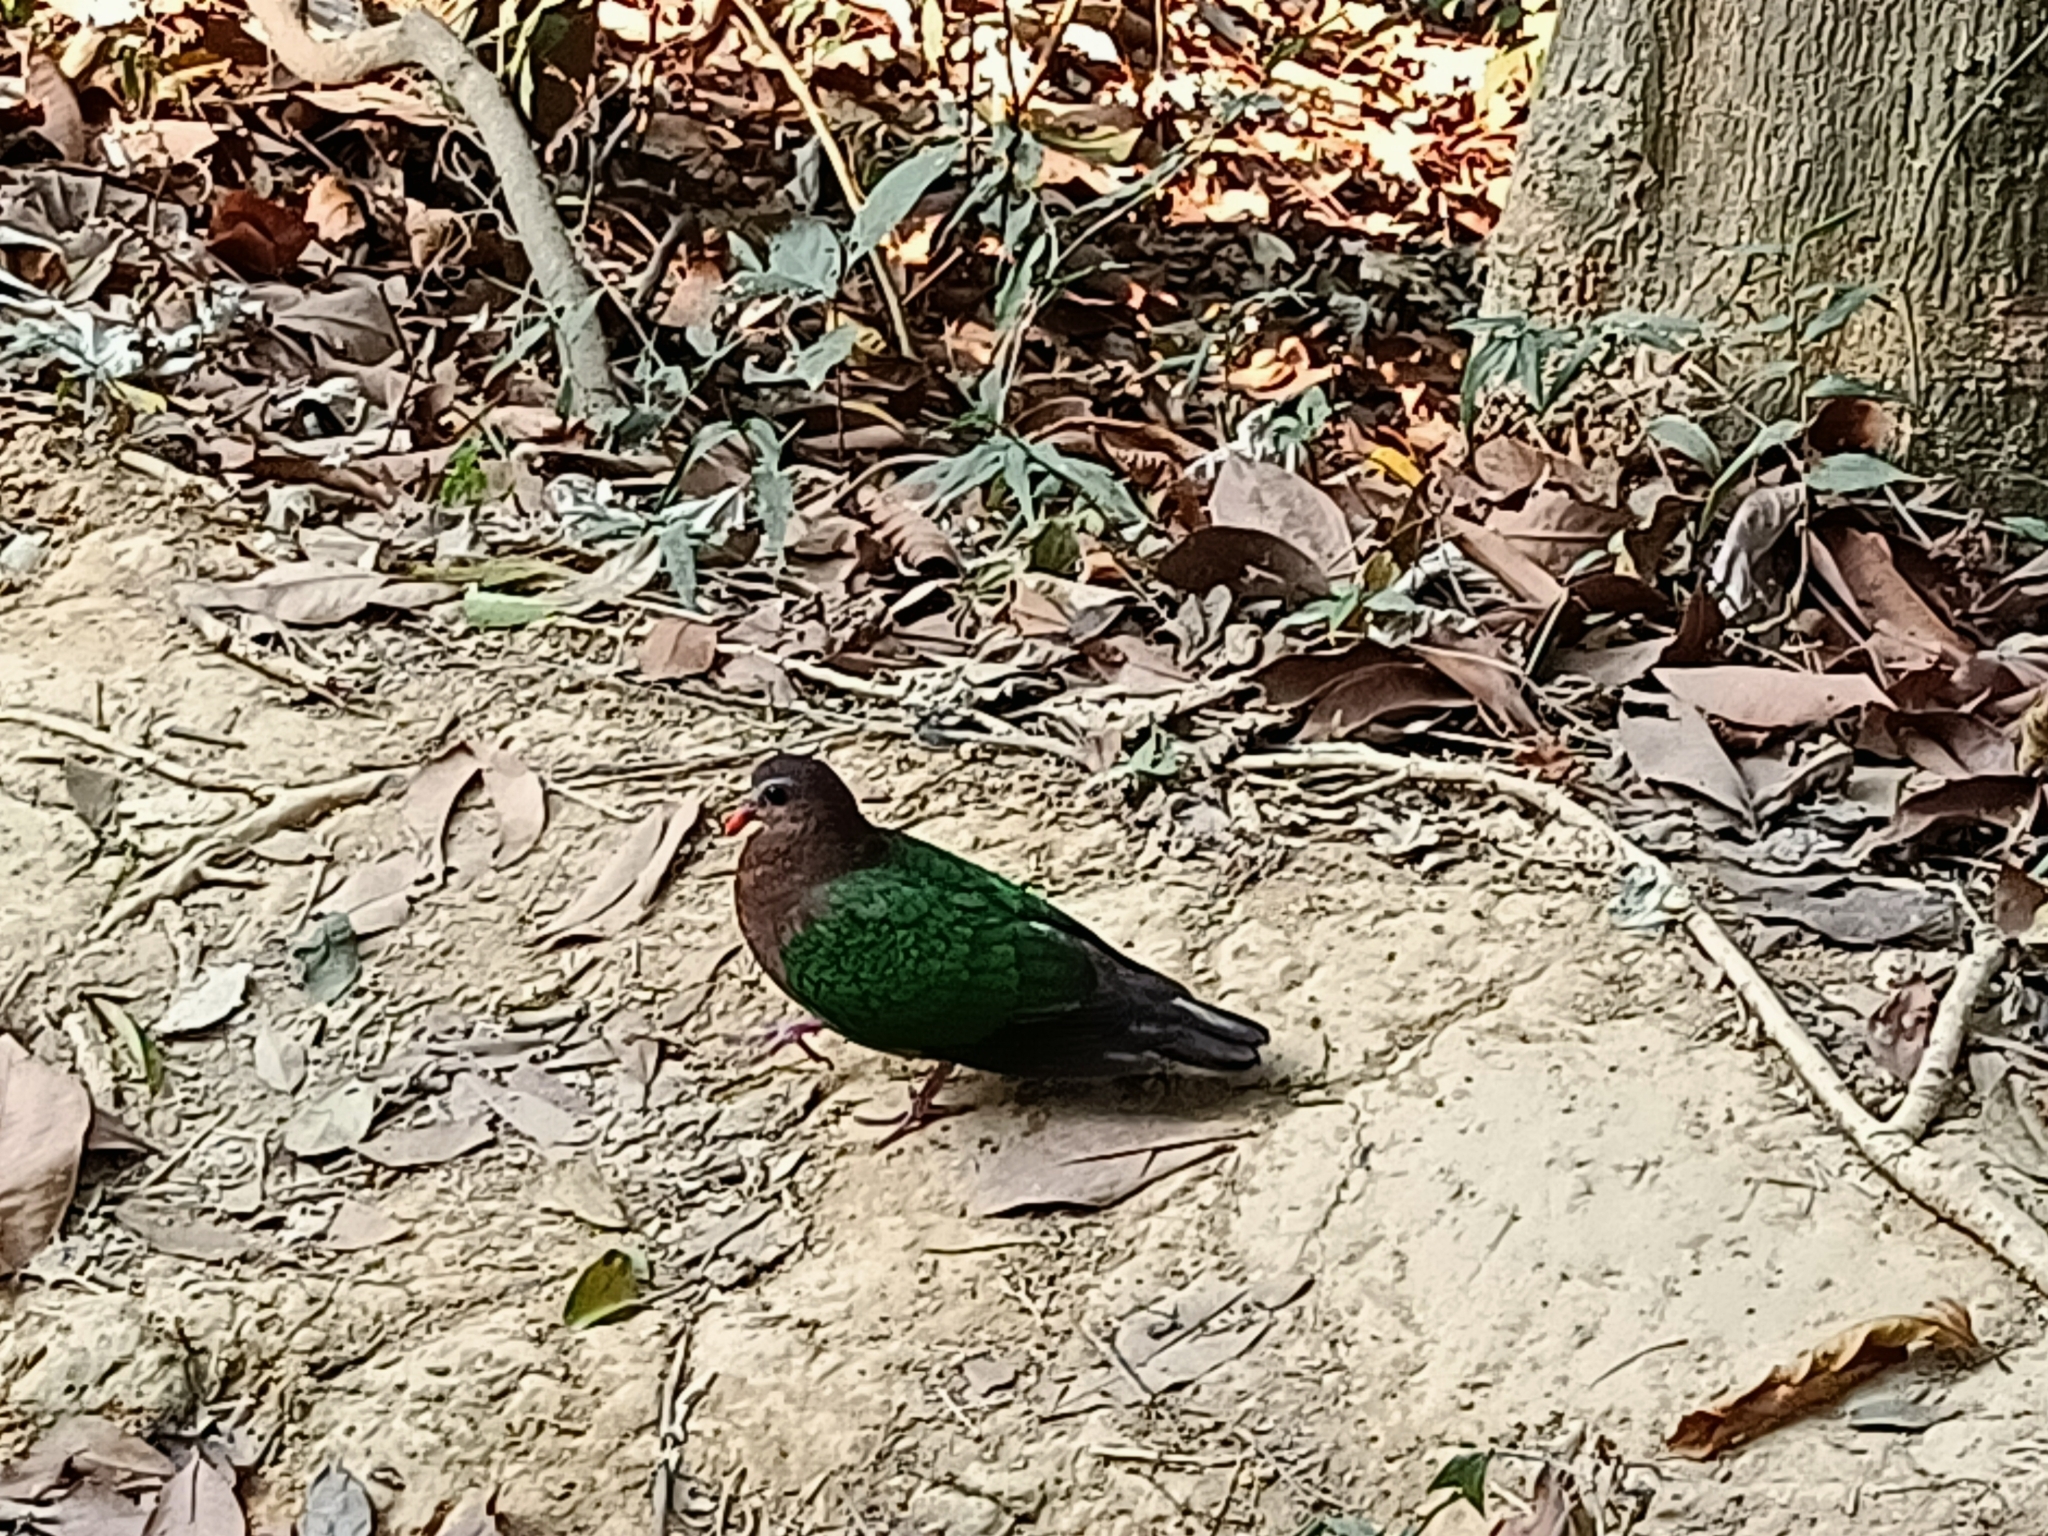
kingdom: Animalia
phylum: Chordata
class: Aves
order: Columbiformes
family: Columbidae
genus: Chalcophaps
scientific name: Chalcophaps indica
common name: Common emerald dove
